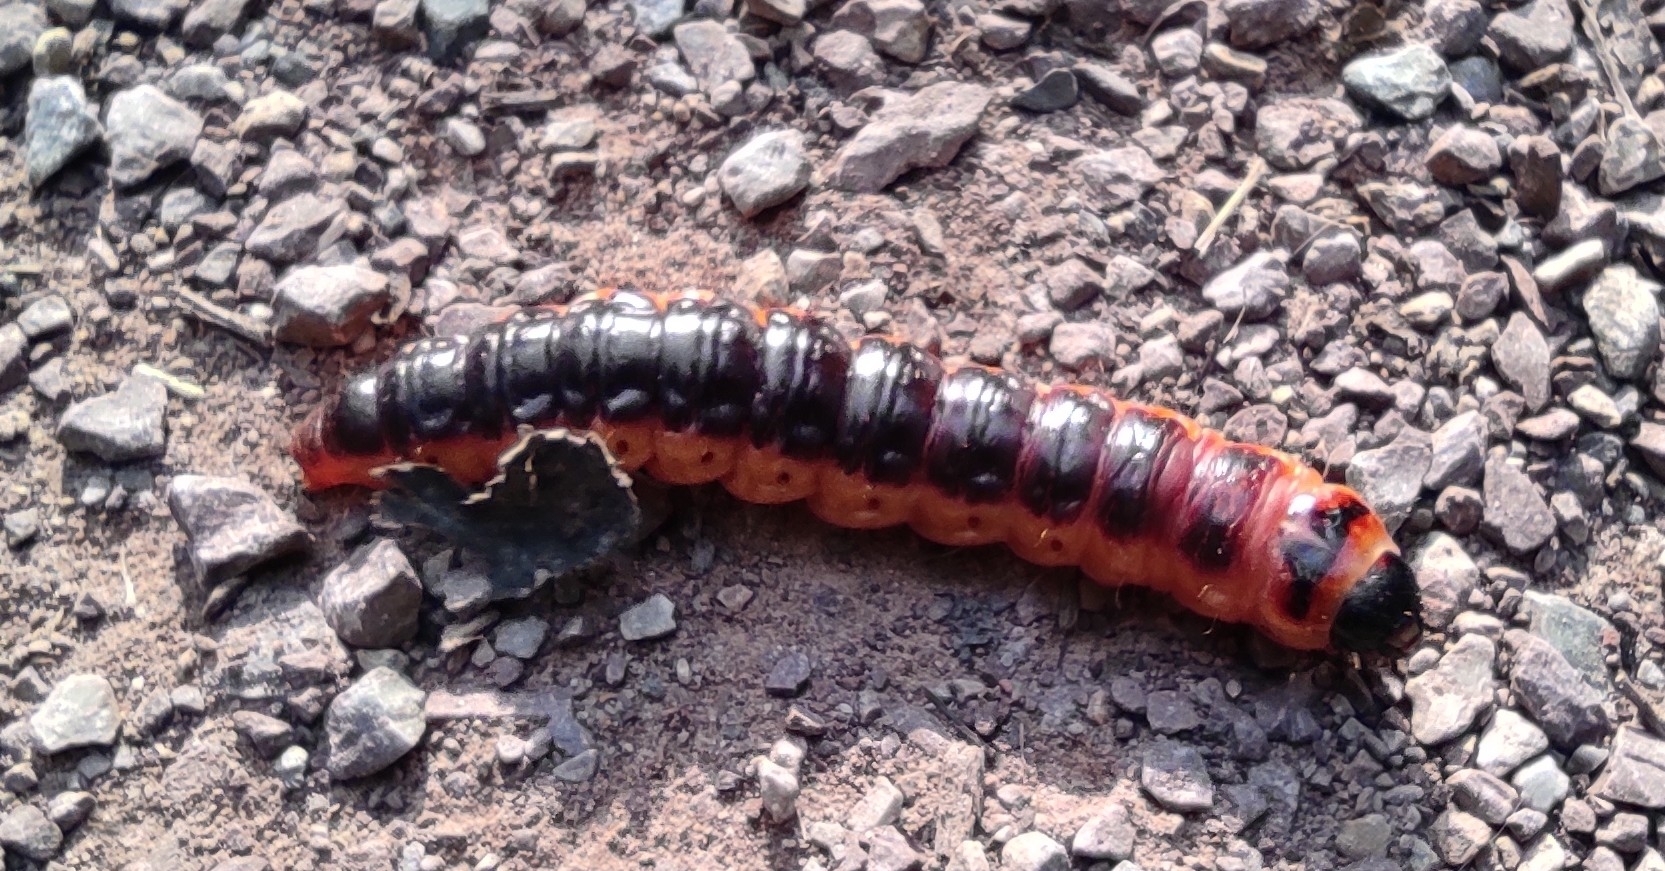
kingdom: Animalia
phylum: Arthropoda
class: Insecta
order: Lepidoptera
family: Cossidae
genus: Cossus
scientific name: Cossus cossus
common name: Goat moth
